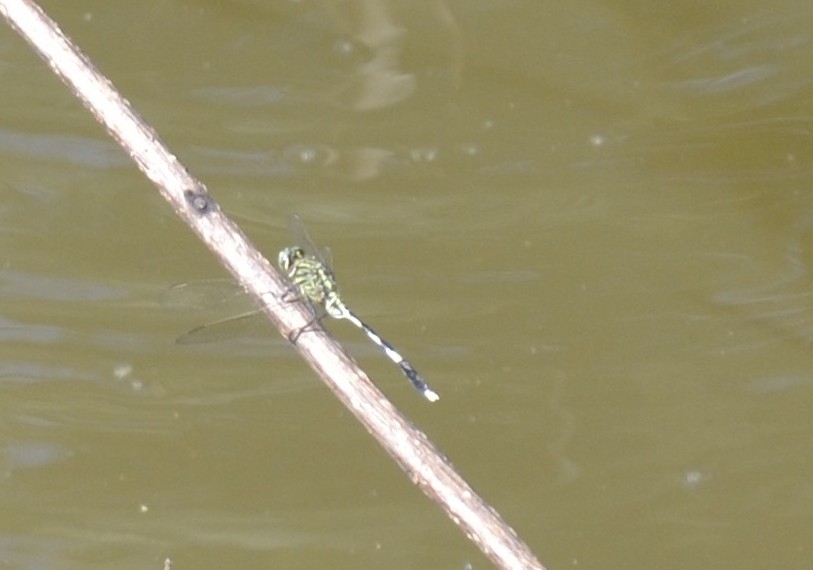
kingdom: Animalia
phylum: Arthropoda
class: Insecta
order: Odonata
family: Libellulidae
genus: Orthetrum
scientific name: Orthetrum sabina
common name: Slender skimmer
